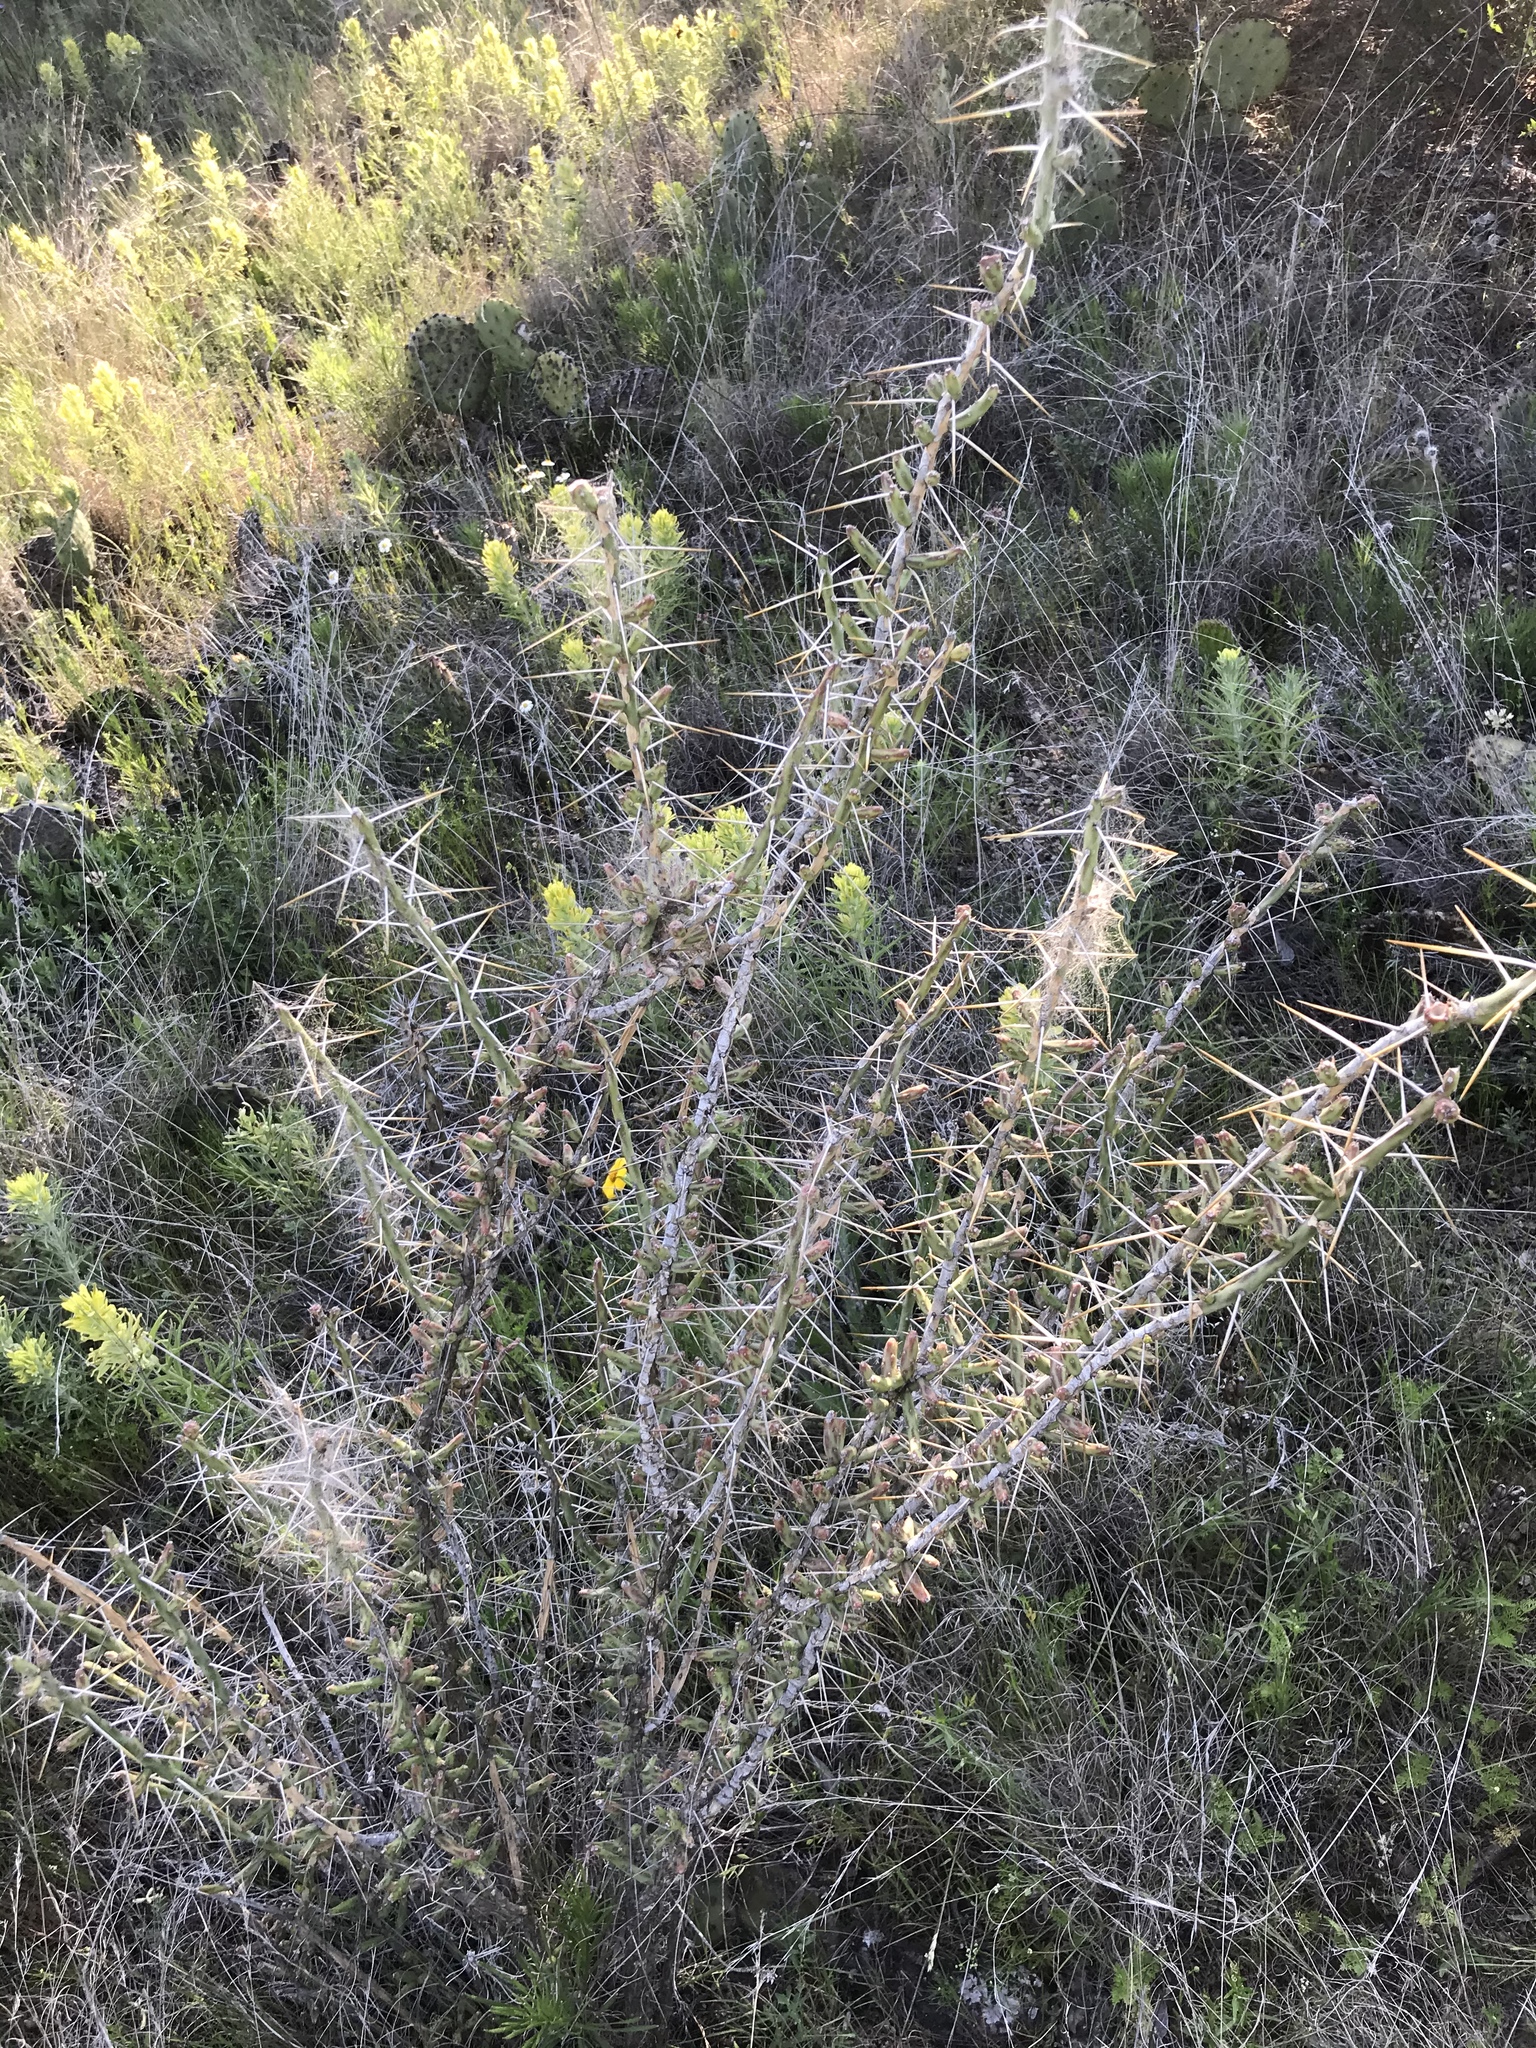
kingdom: Plantae
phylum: Tracheophyta
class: Magnoliopsida
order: Caryophyllales
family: Cactaceae
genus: Cylindropuntia
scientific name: Cylindropuntia leptocaulis
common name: Christmas cactus
